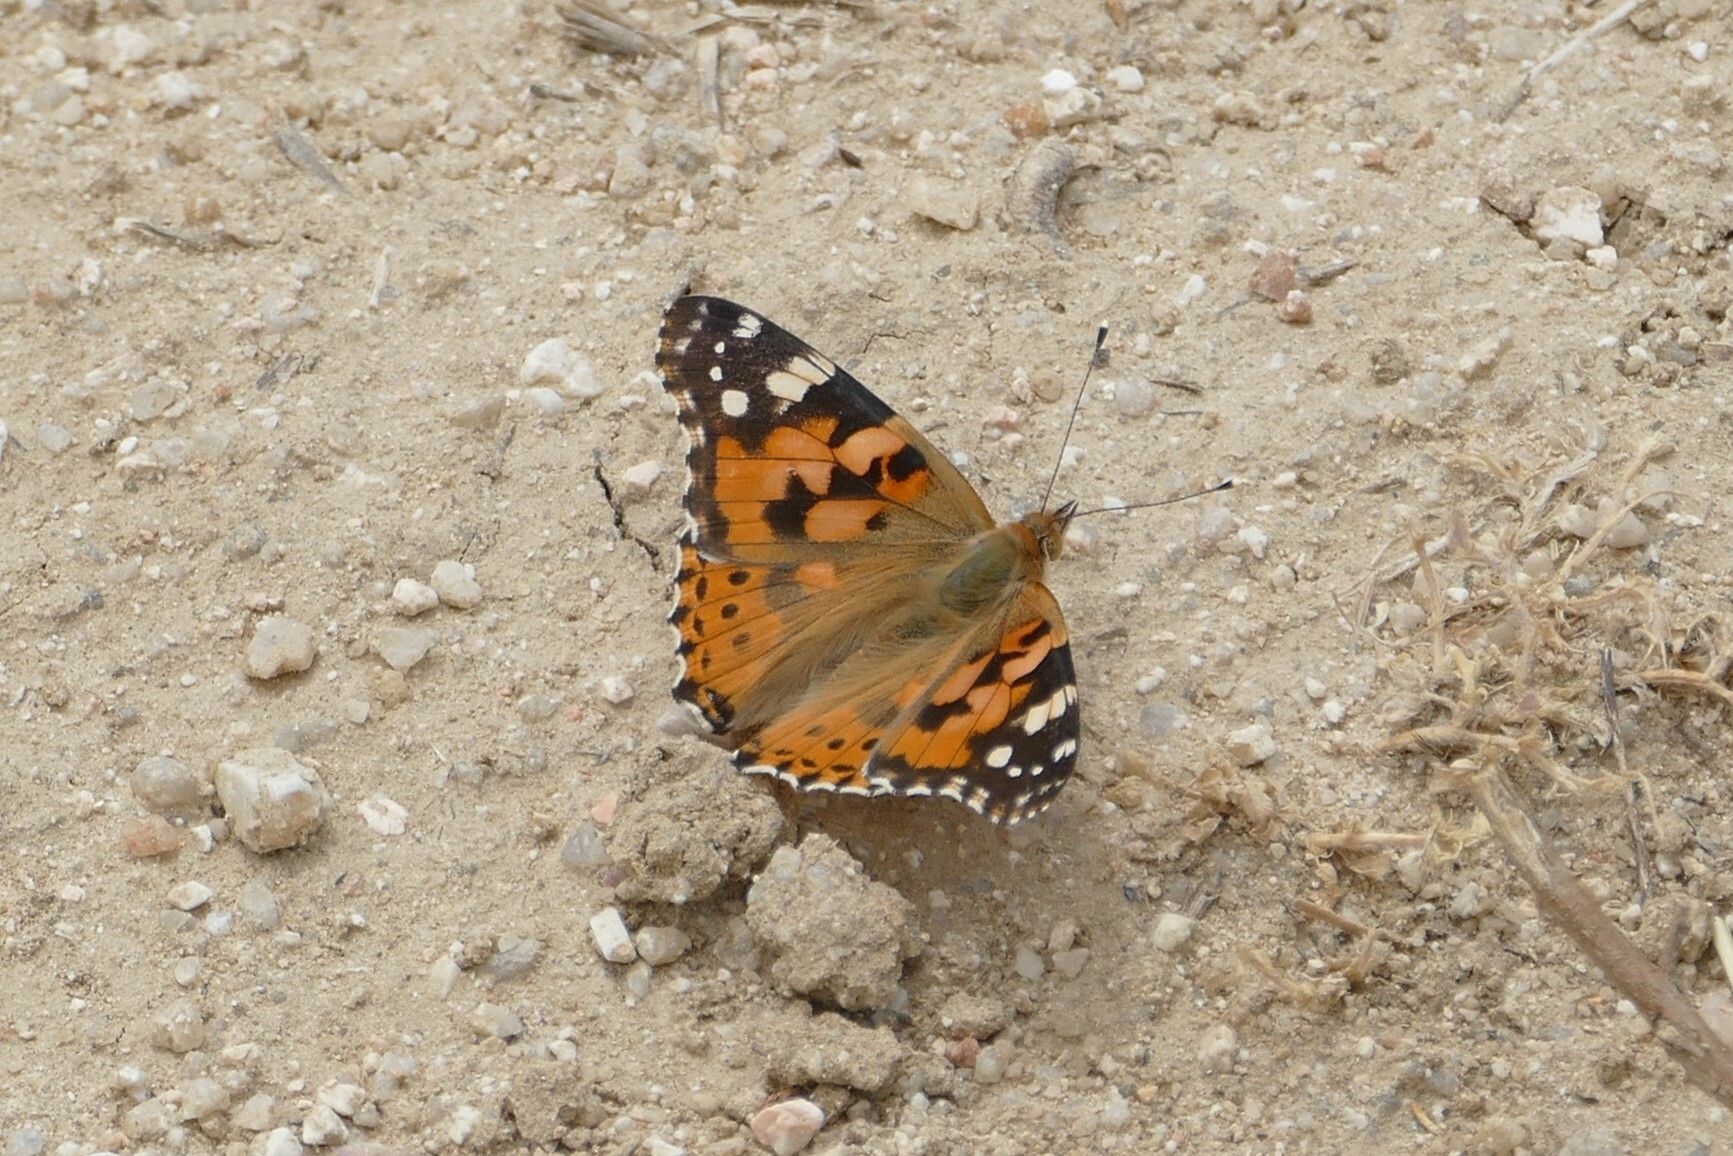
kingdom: Animalia
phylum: Arthropoda
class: Insecta
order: Lepidoptera
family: Nymphalidae
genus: Vanessa
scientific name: Vanessa cardui
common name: Painted lady
